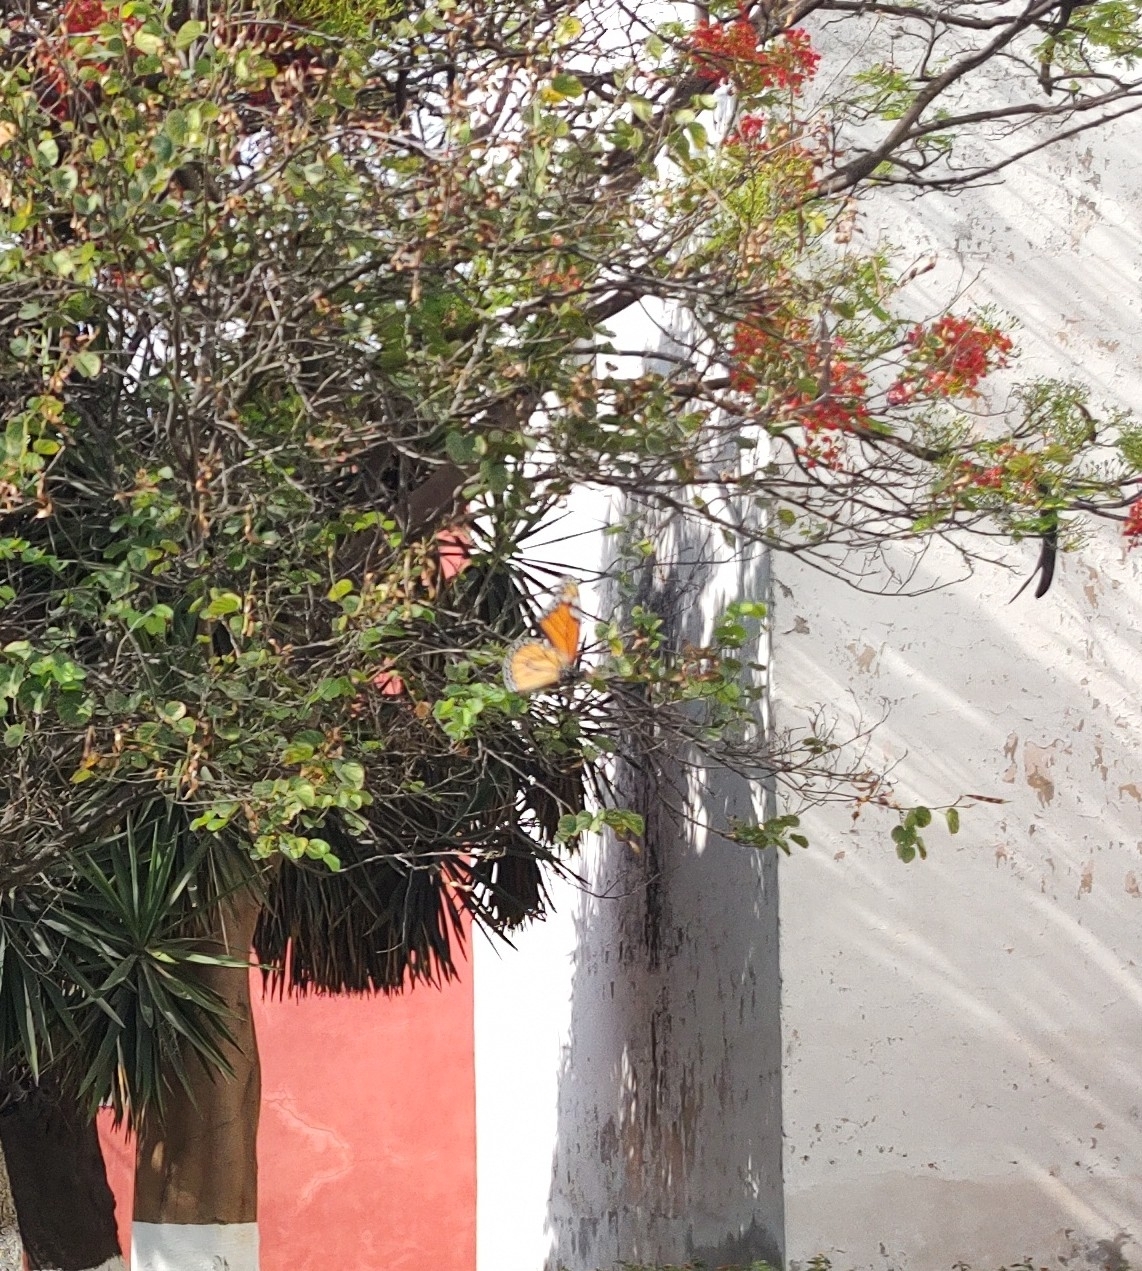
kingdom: Animalia
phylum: Arthropoda
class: Insecta
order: Lepidoptera
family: Nymphalidae
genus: Danaus
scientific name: Danaus plexippus
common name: Monarch
